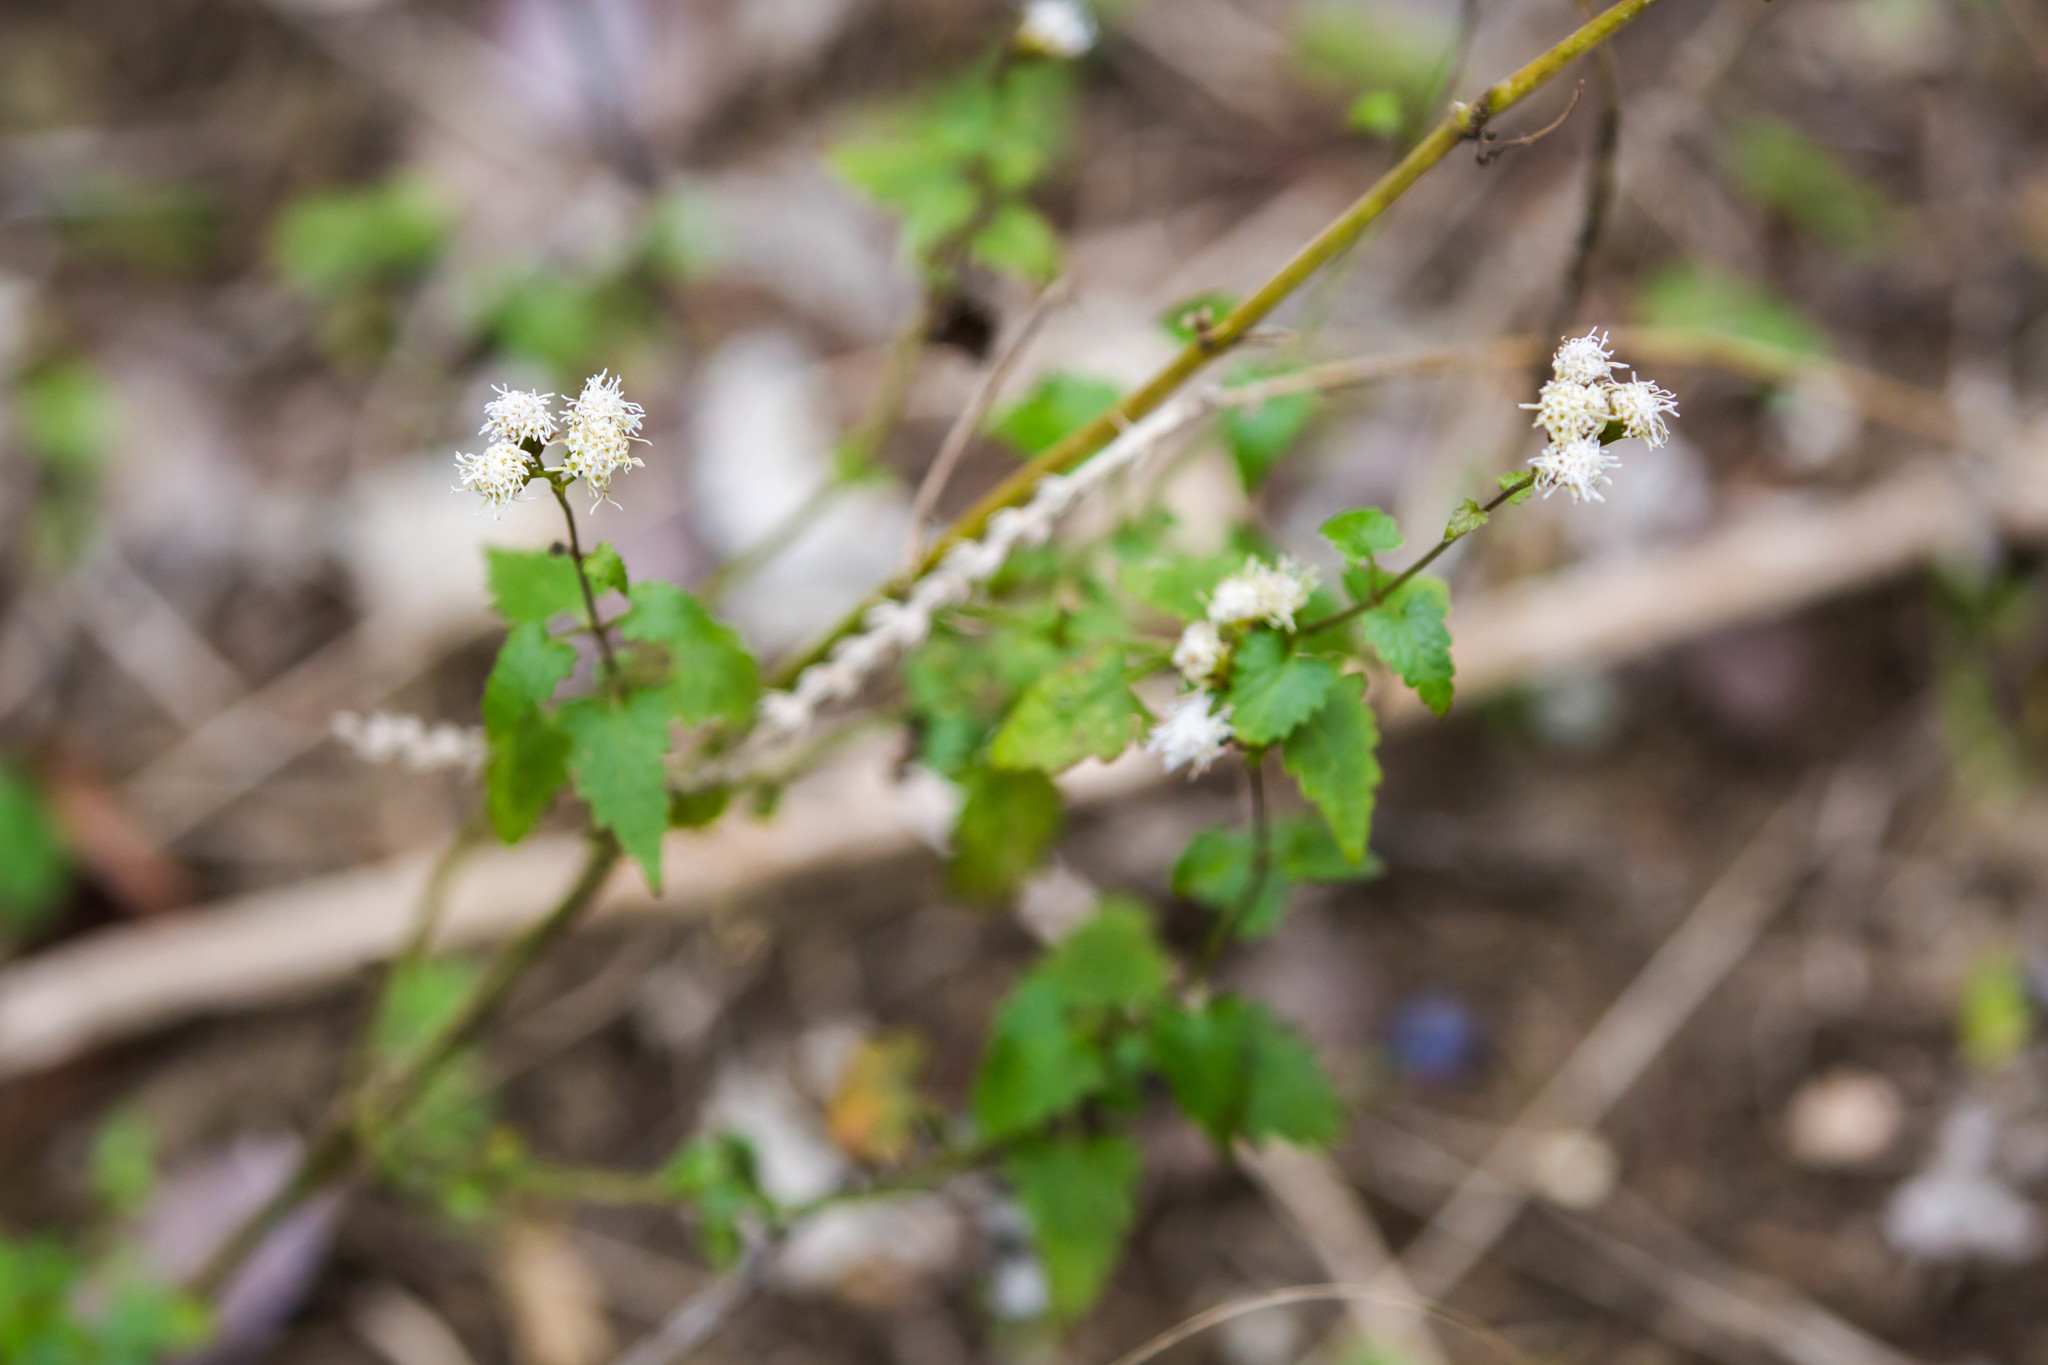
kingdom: Plantae
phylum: Tracheophyta
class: Magnoliopsida
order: Asterales
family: Asteraceae
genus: Fleischmannia
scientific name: Fleischmannia incarnata
